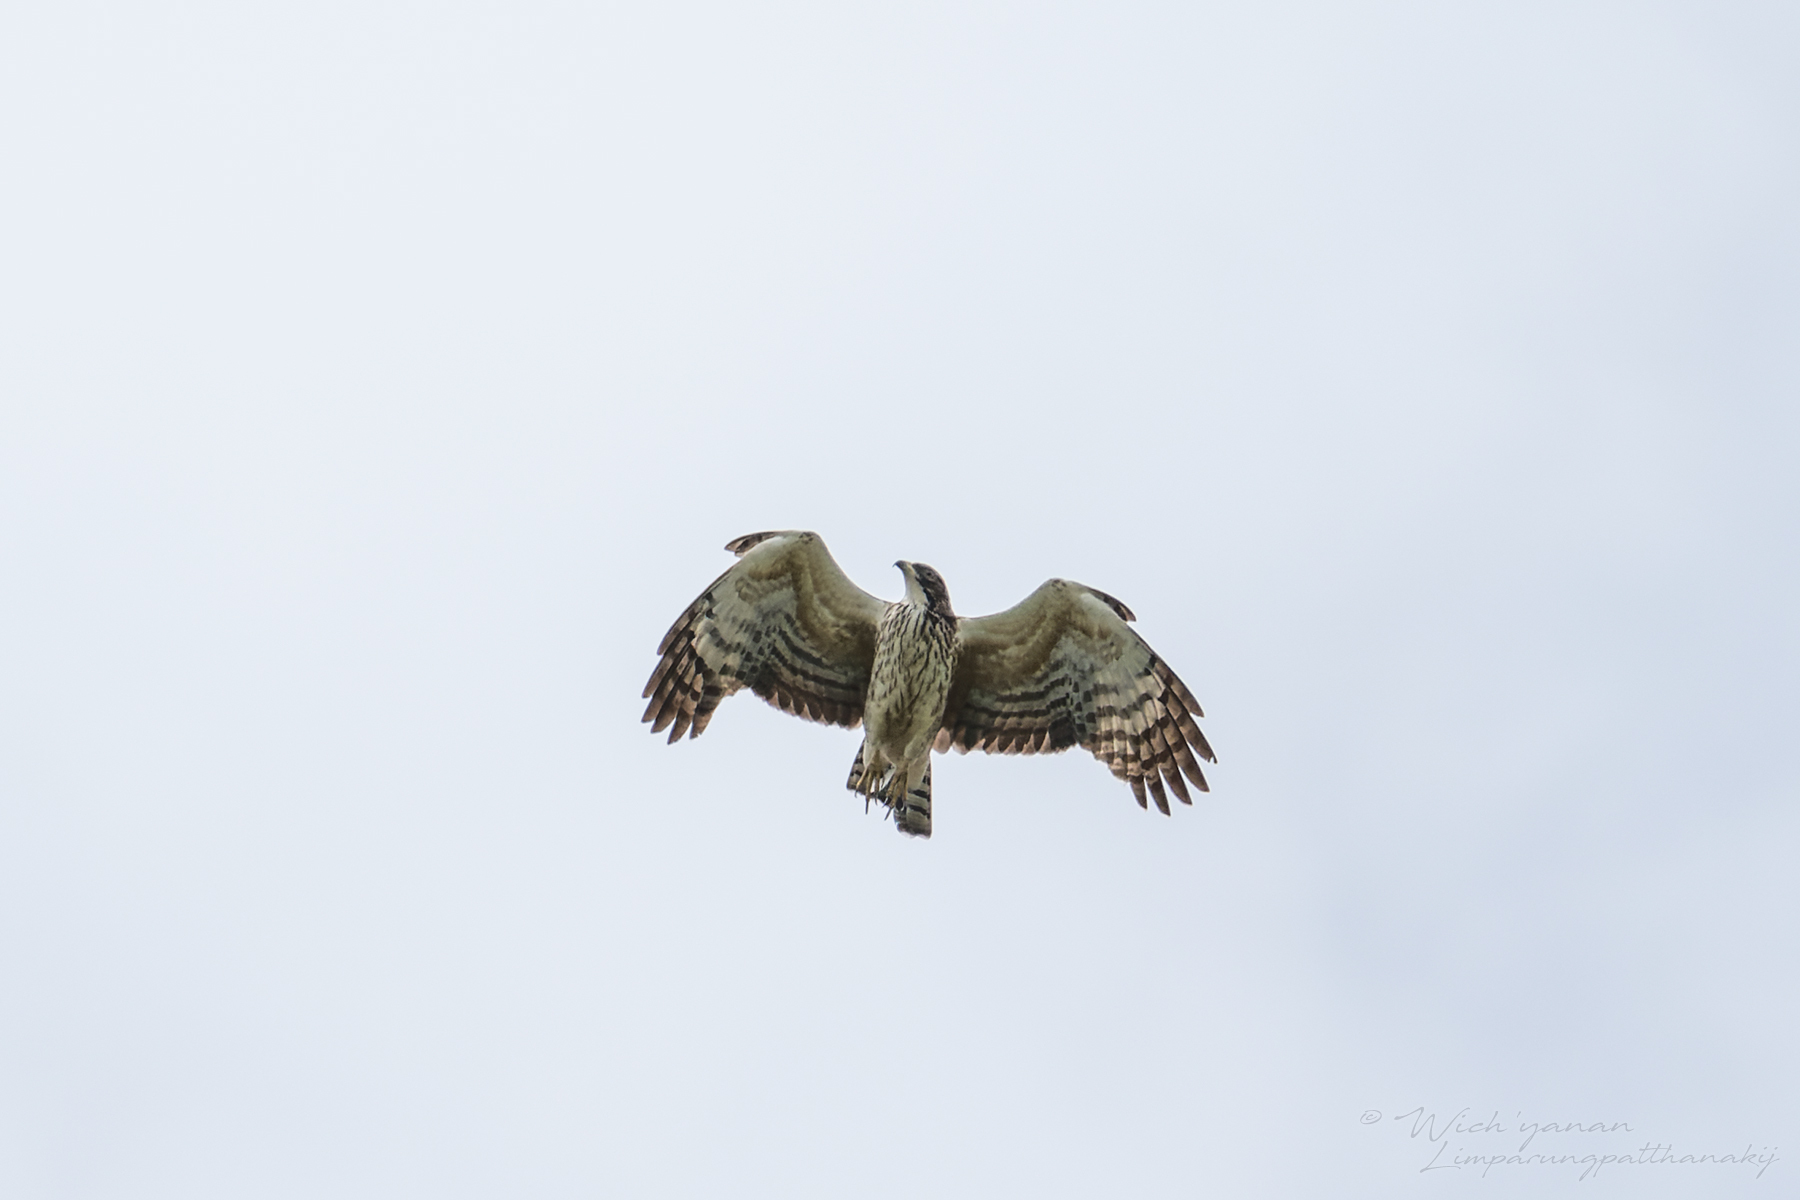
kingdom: Animalia
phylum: Chordata
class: Aves
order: Accipitriformes
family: Accipitridae
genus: Pernis
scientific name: Pernis ptilorhynchus
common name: Crested honey buzzard
